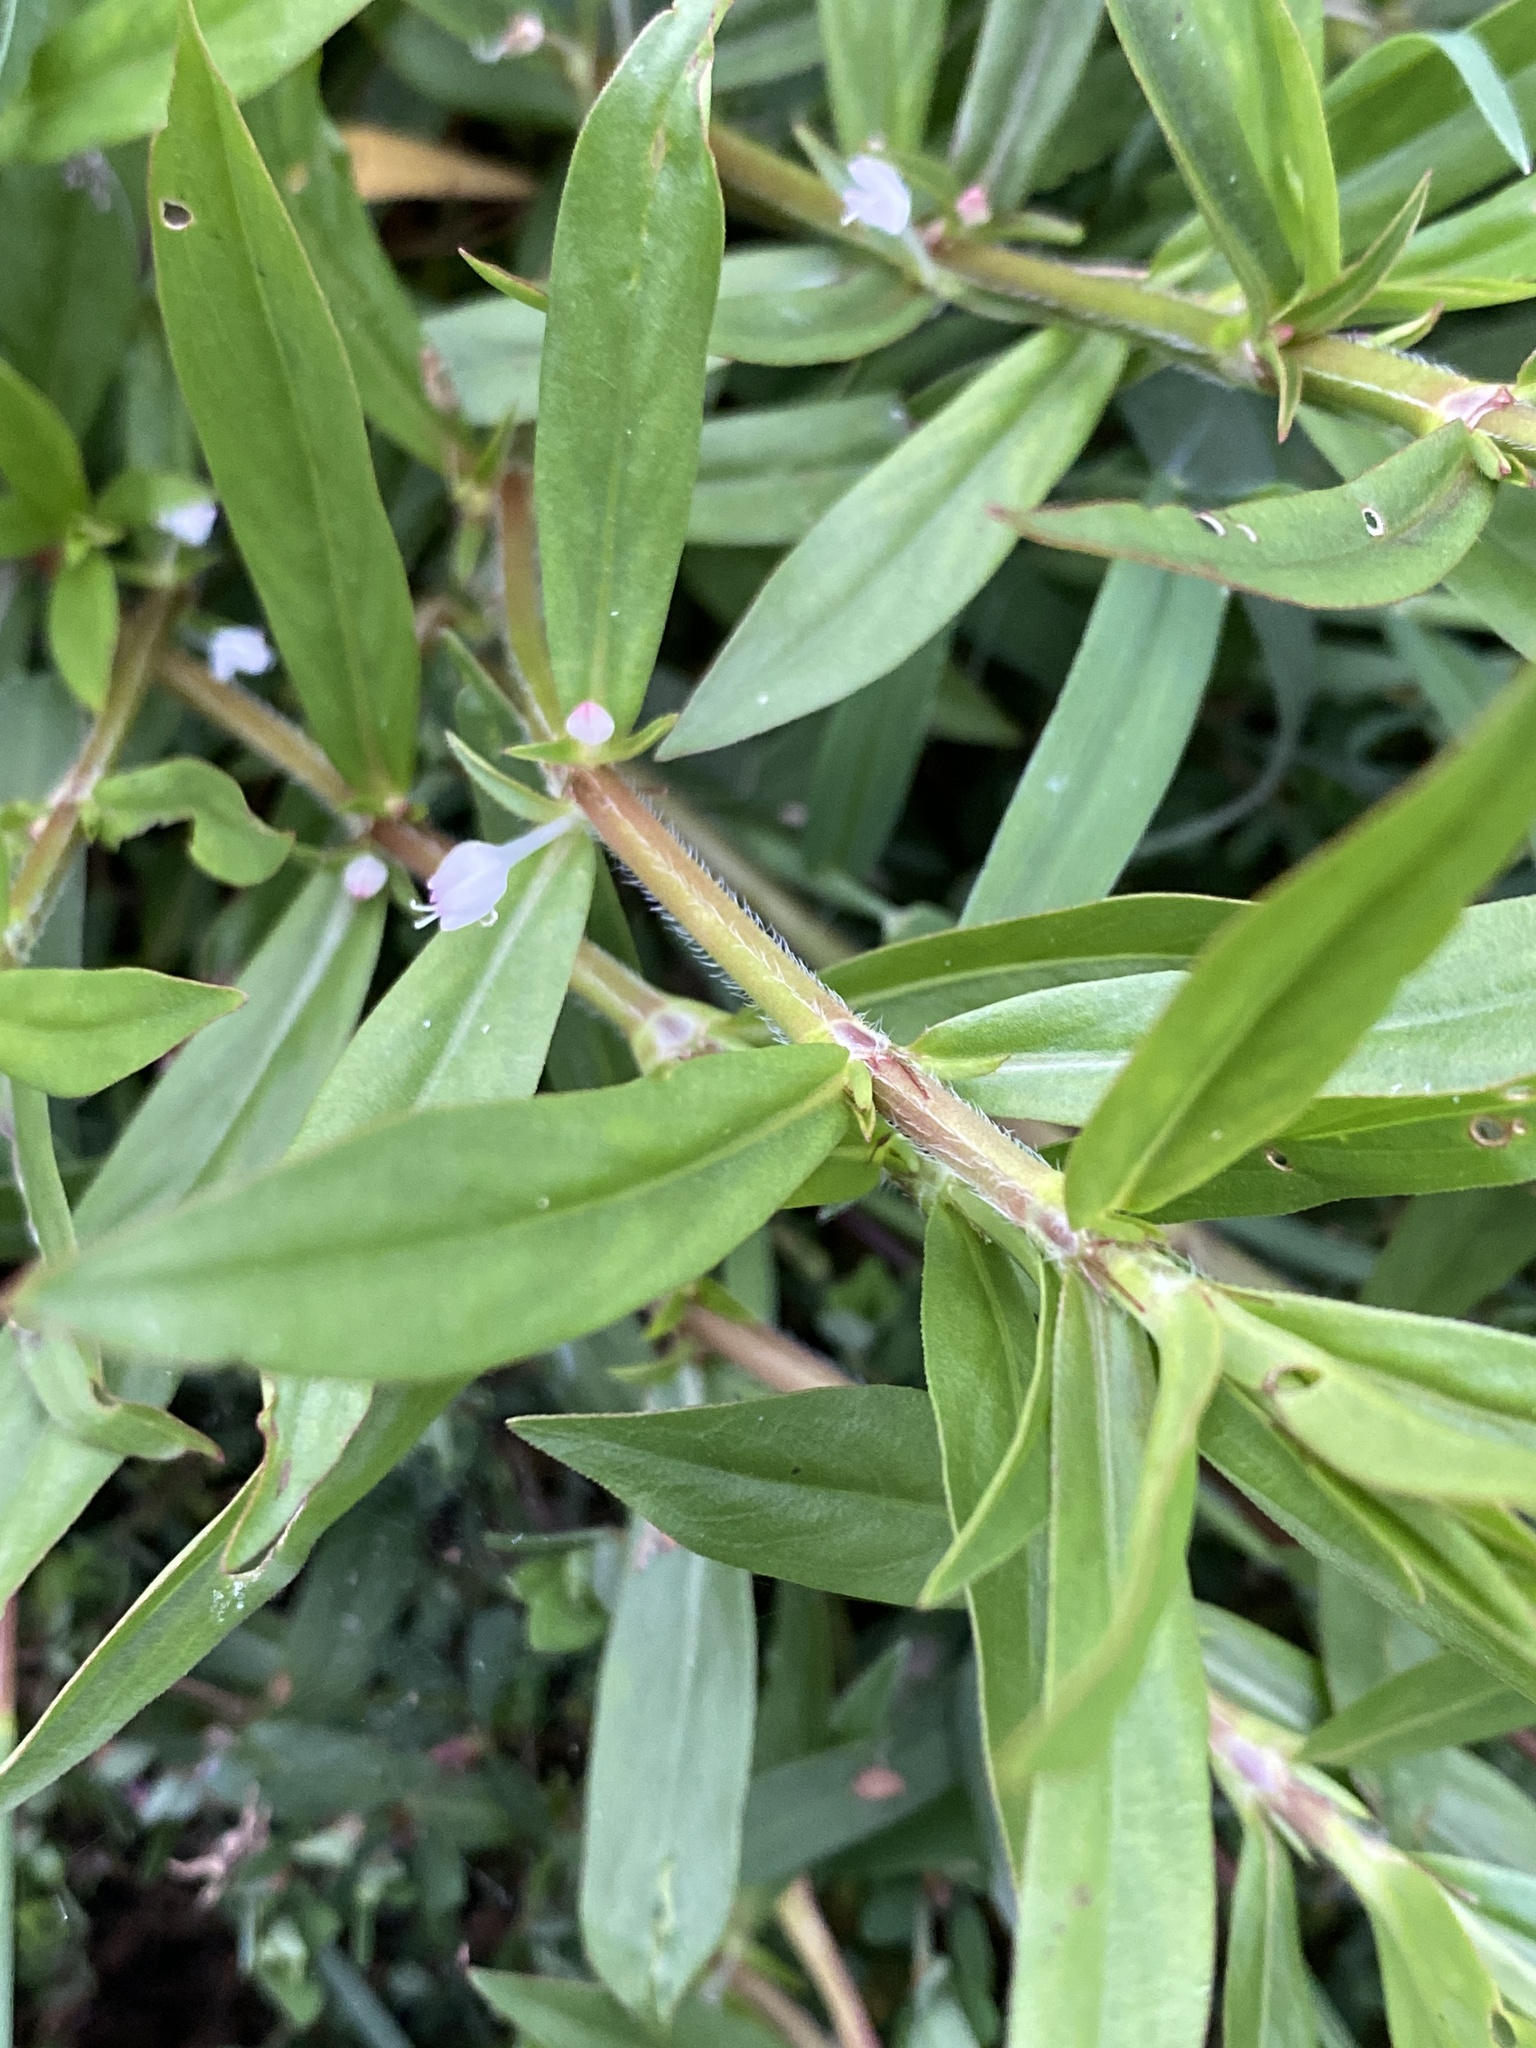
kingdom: Plantae
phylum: Tracheophyta
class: Magnoliopsida
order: Gentianales
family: Rubiaceae
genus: Diodia
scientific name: Diodia virginiana
